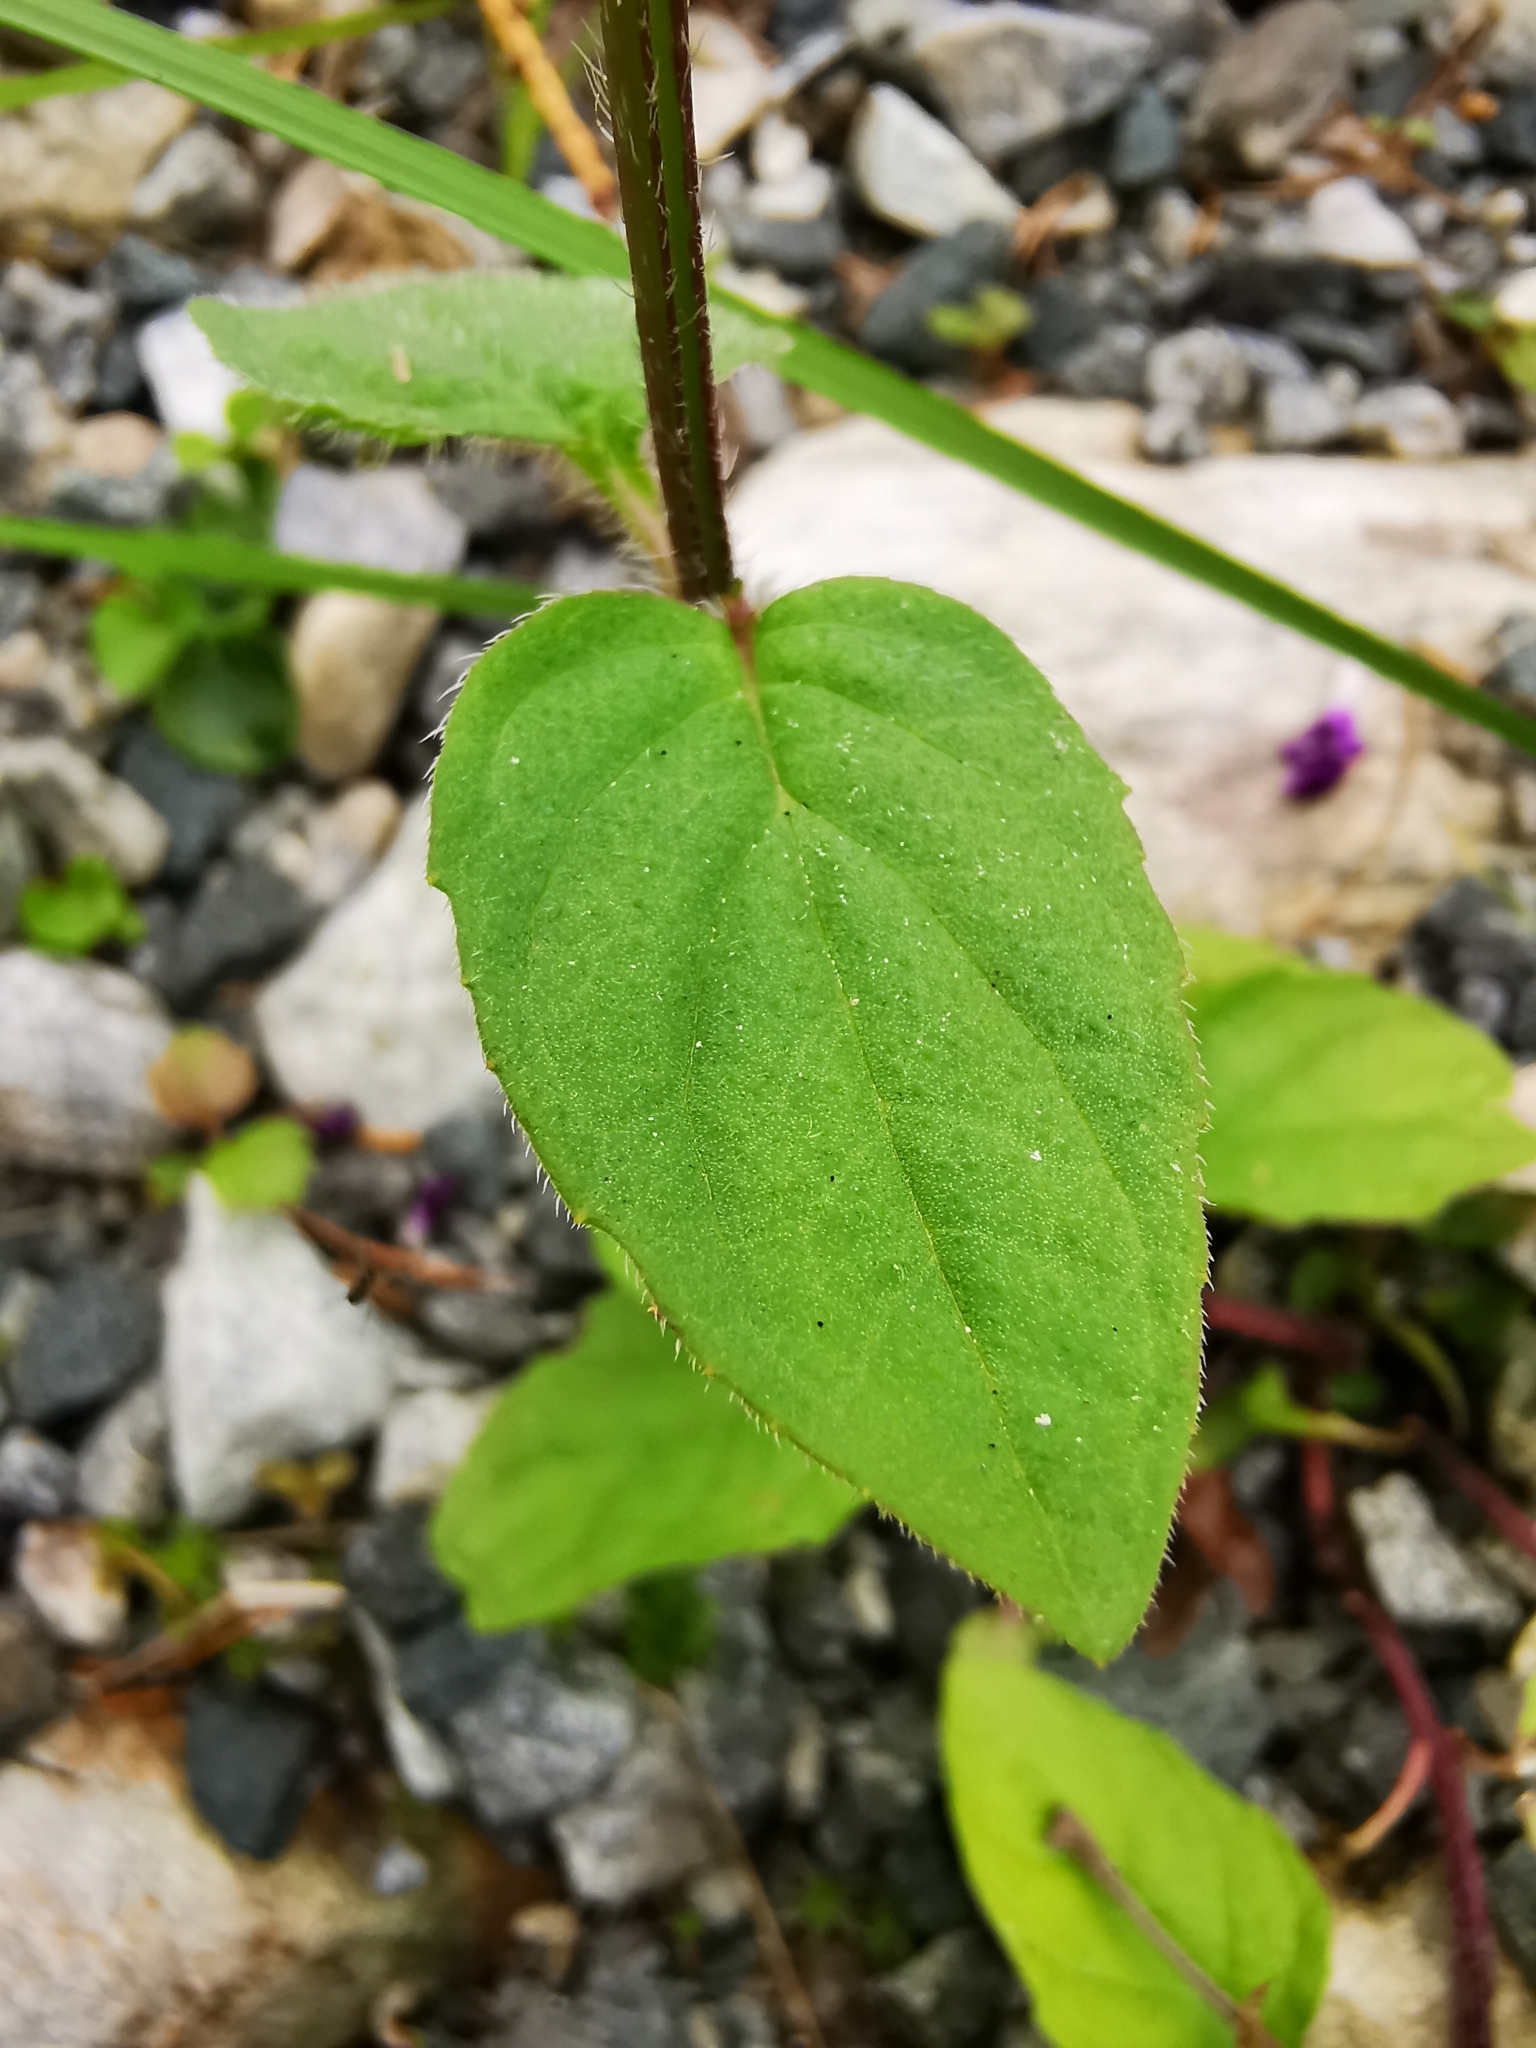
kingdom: Plantae
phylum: Tracheophyta
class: Magnoliopsida
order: Lamiales
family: Lamiaceae
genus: Prunella
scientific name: Prunella vulgaris
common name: Heal-all
